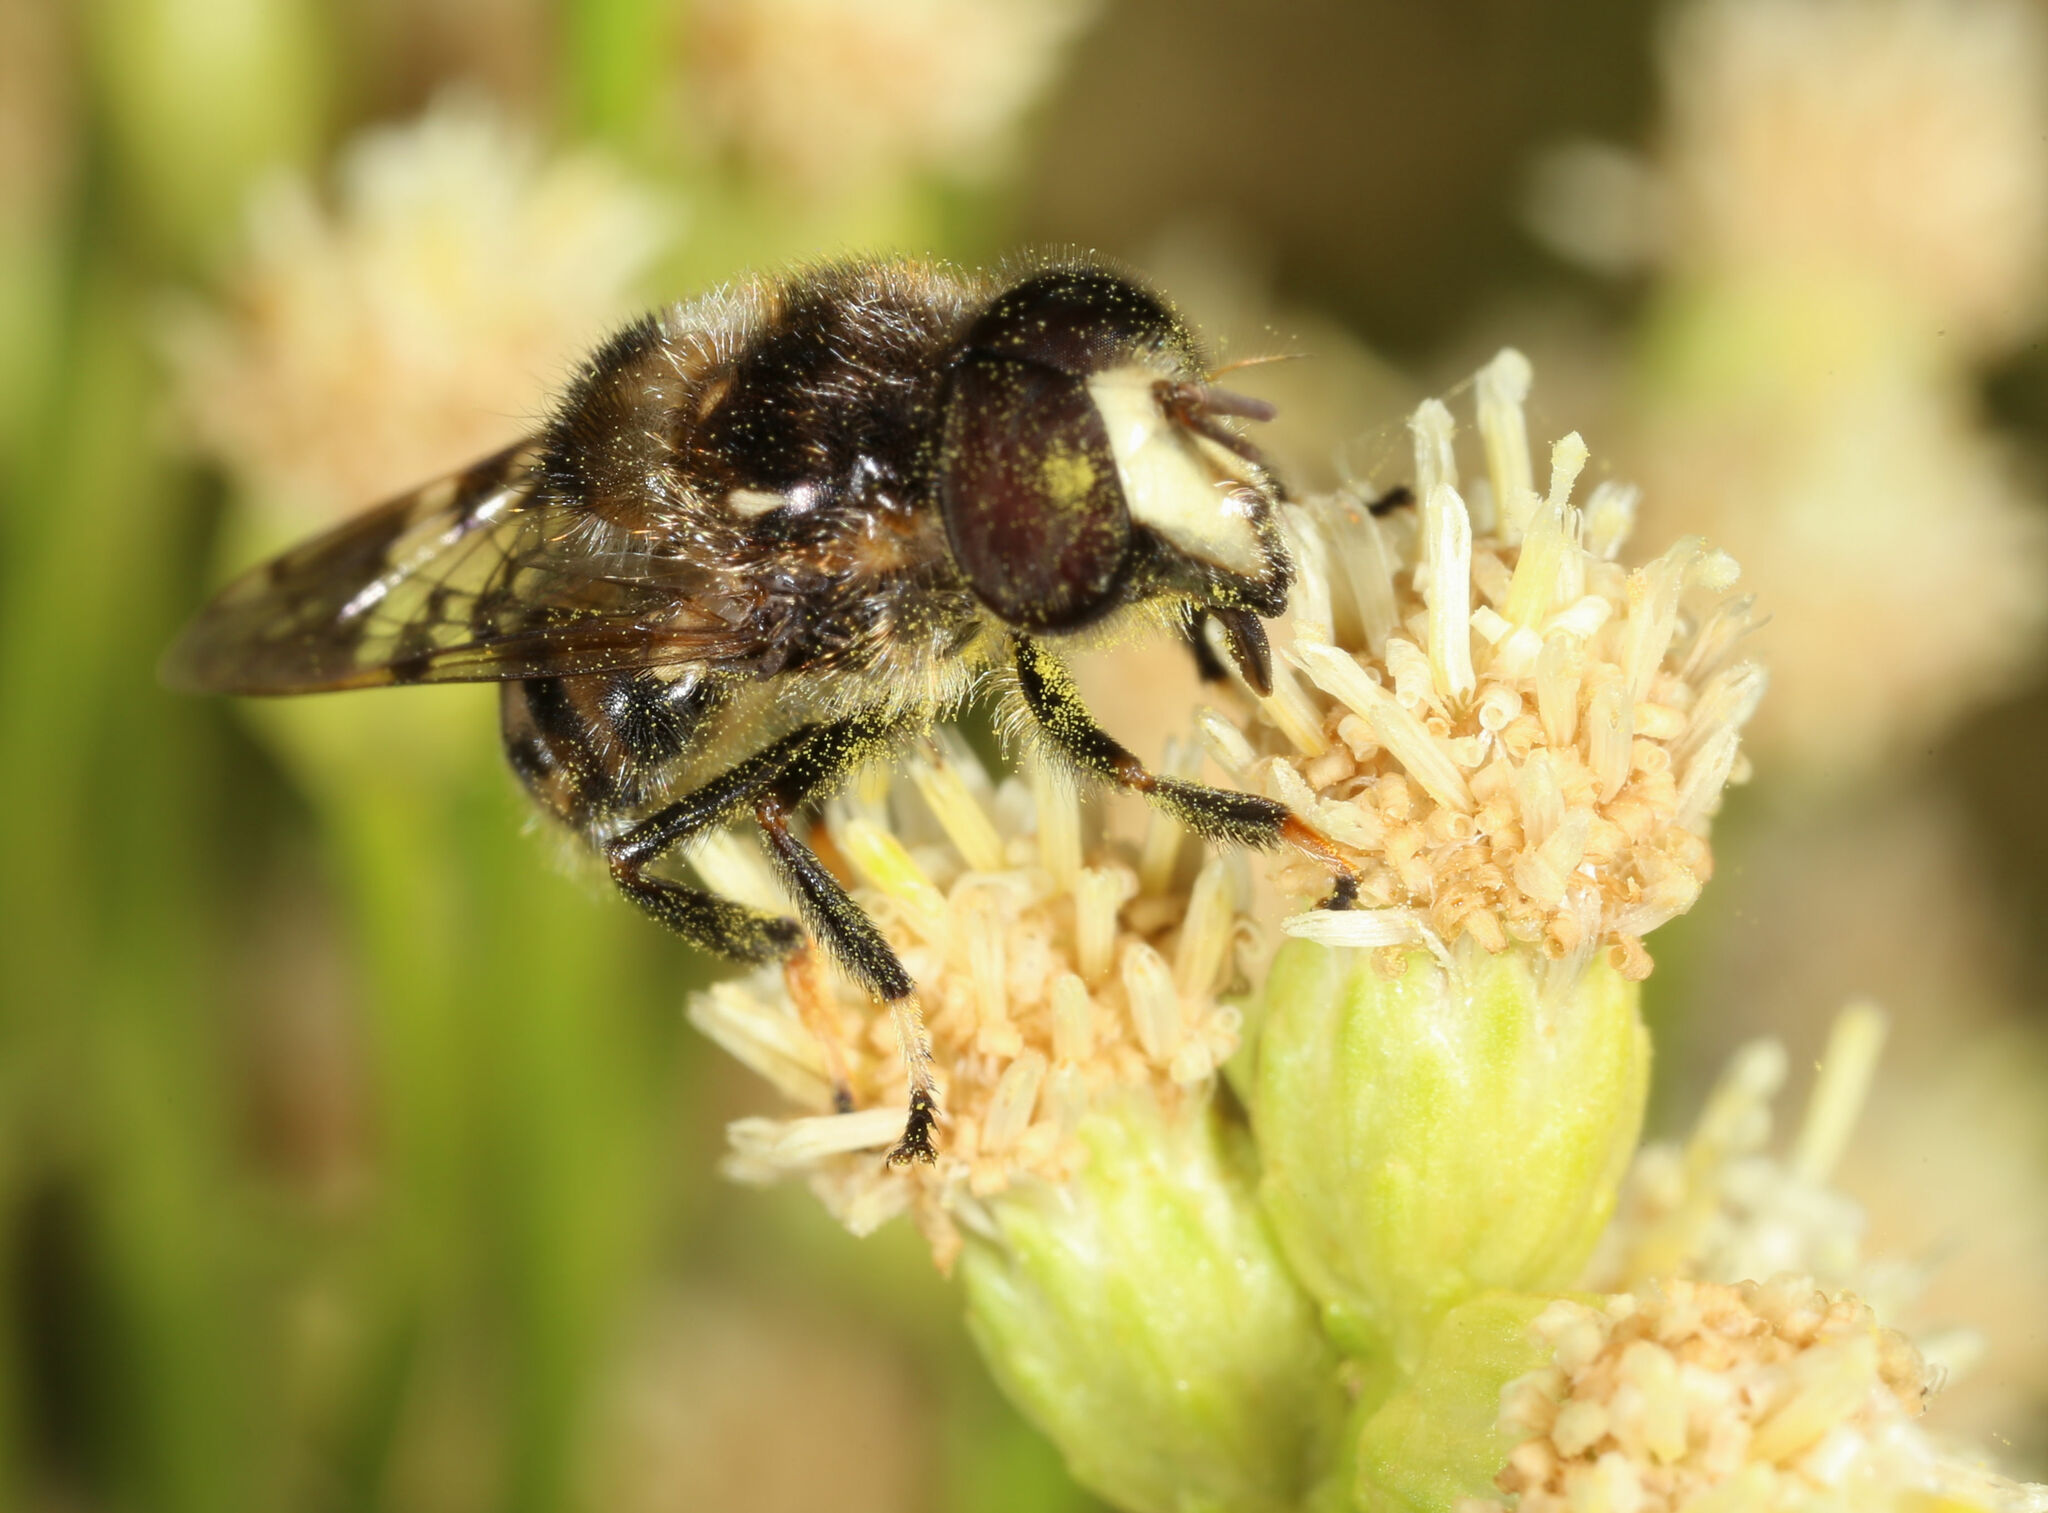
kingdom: Animalia
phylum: Arthropoda
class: Insecta
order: Diptera
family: Syrphidae
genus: Copestylum
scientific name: Copestylum tamaulipanum
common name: Syrphid fly
